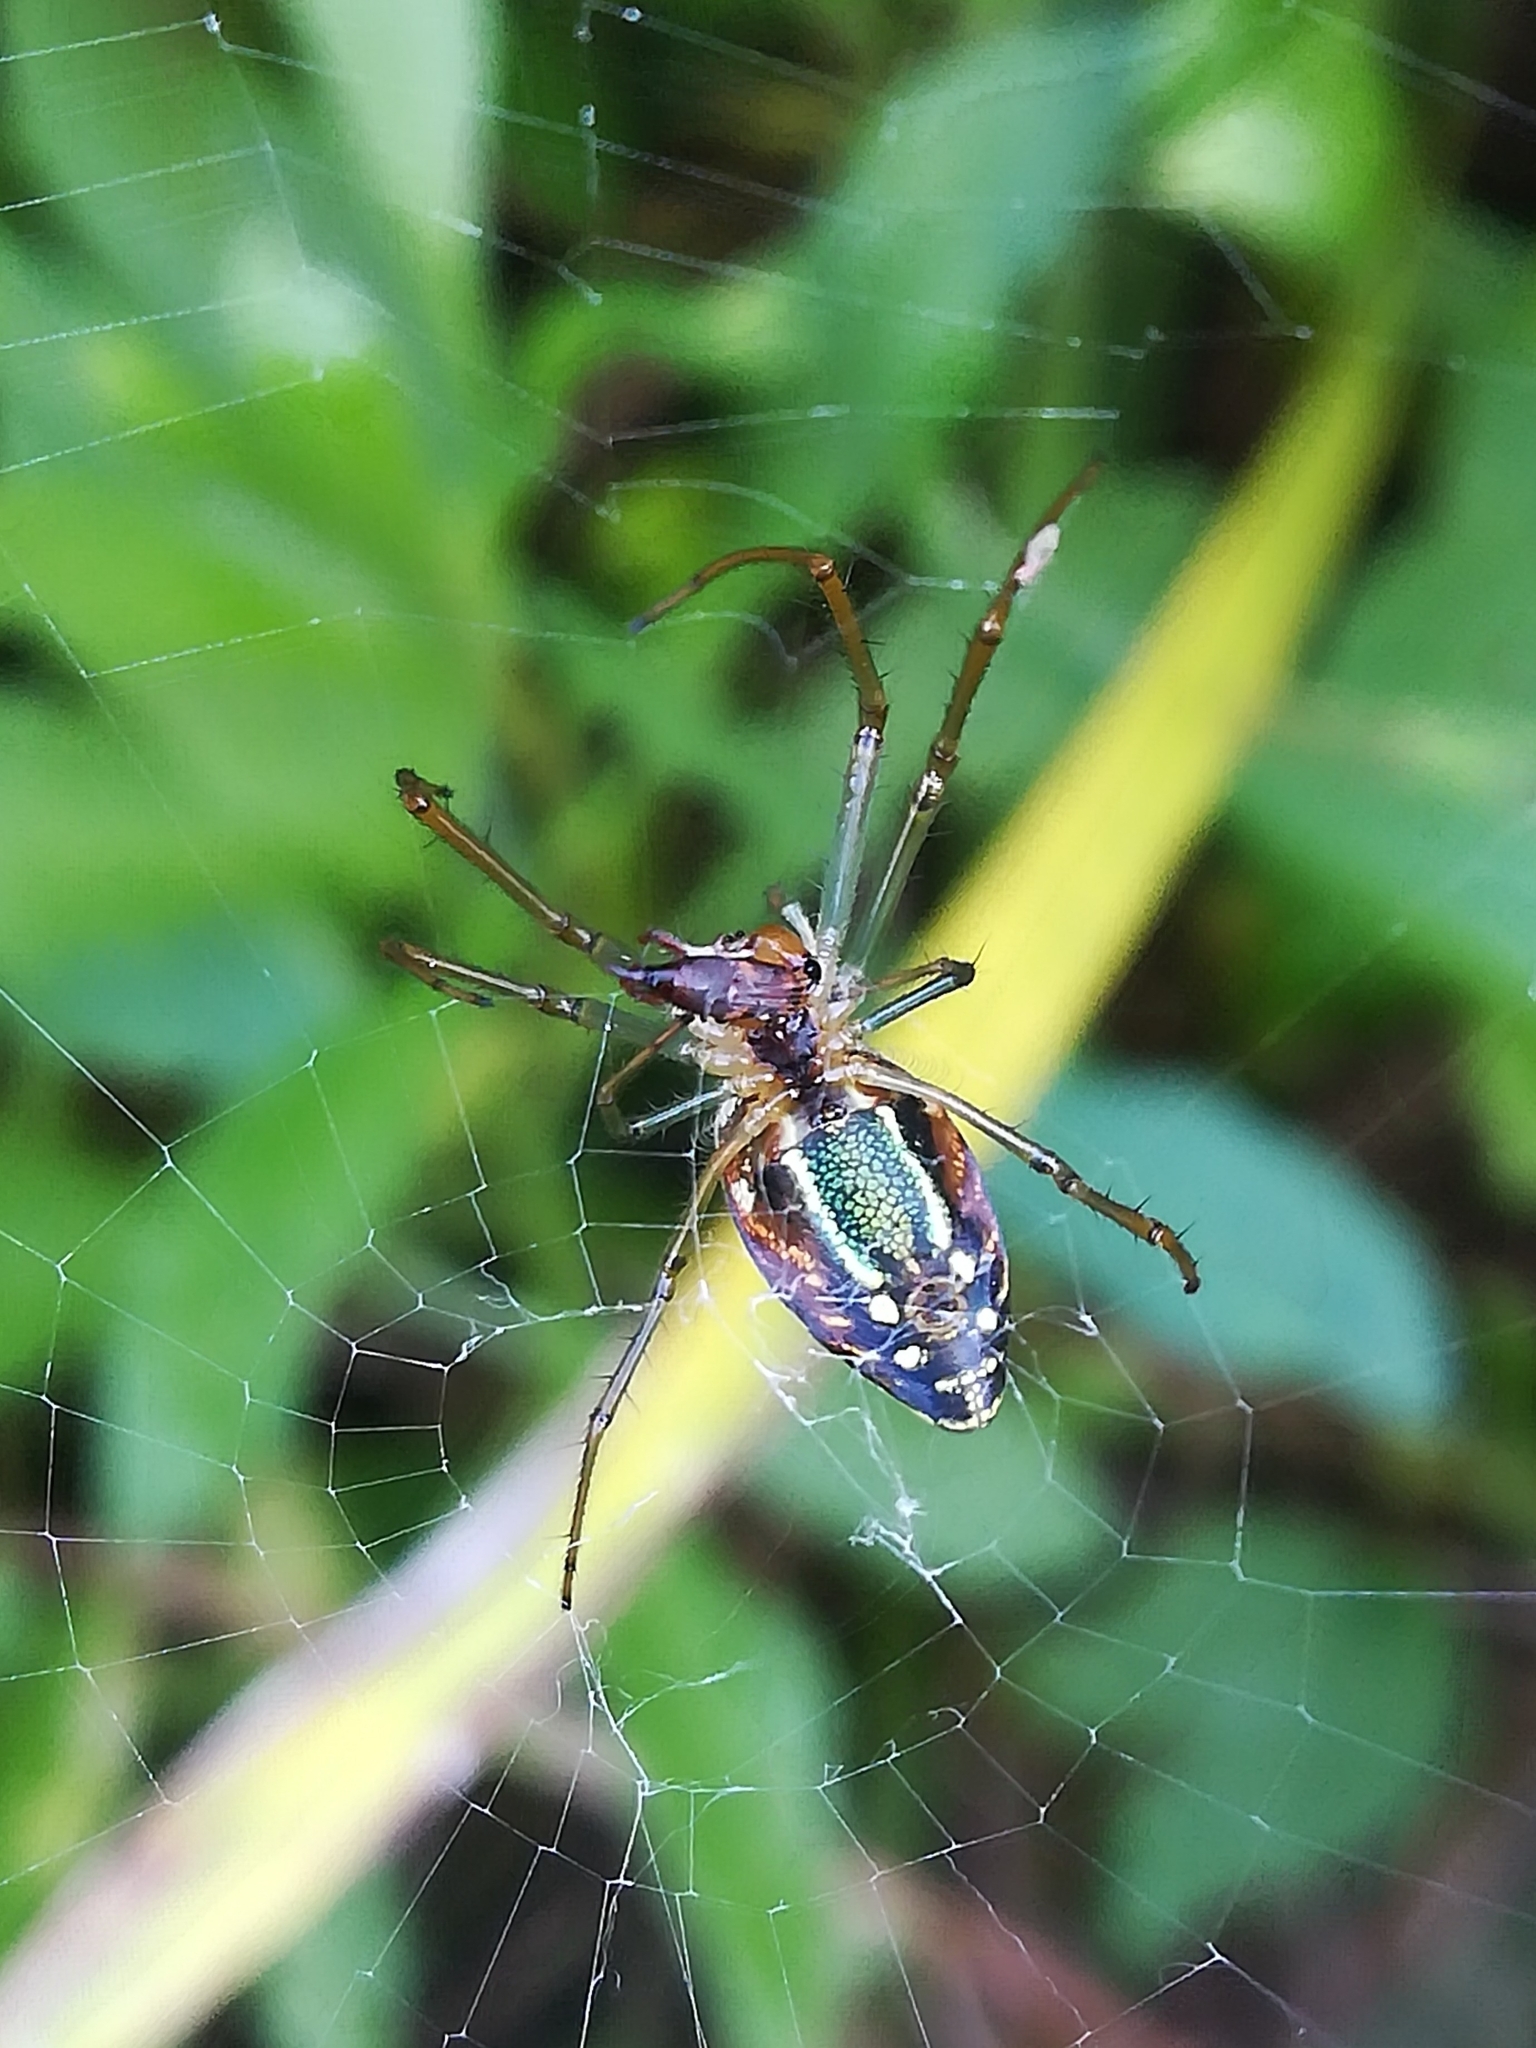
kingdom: Animalia
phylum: Arthropoda
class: Arachnida
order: Araneae
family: Tetragnathidae
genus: Leucauge
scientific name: Leucauge festiva
